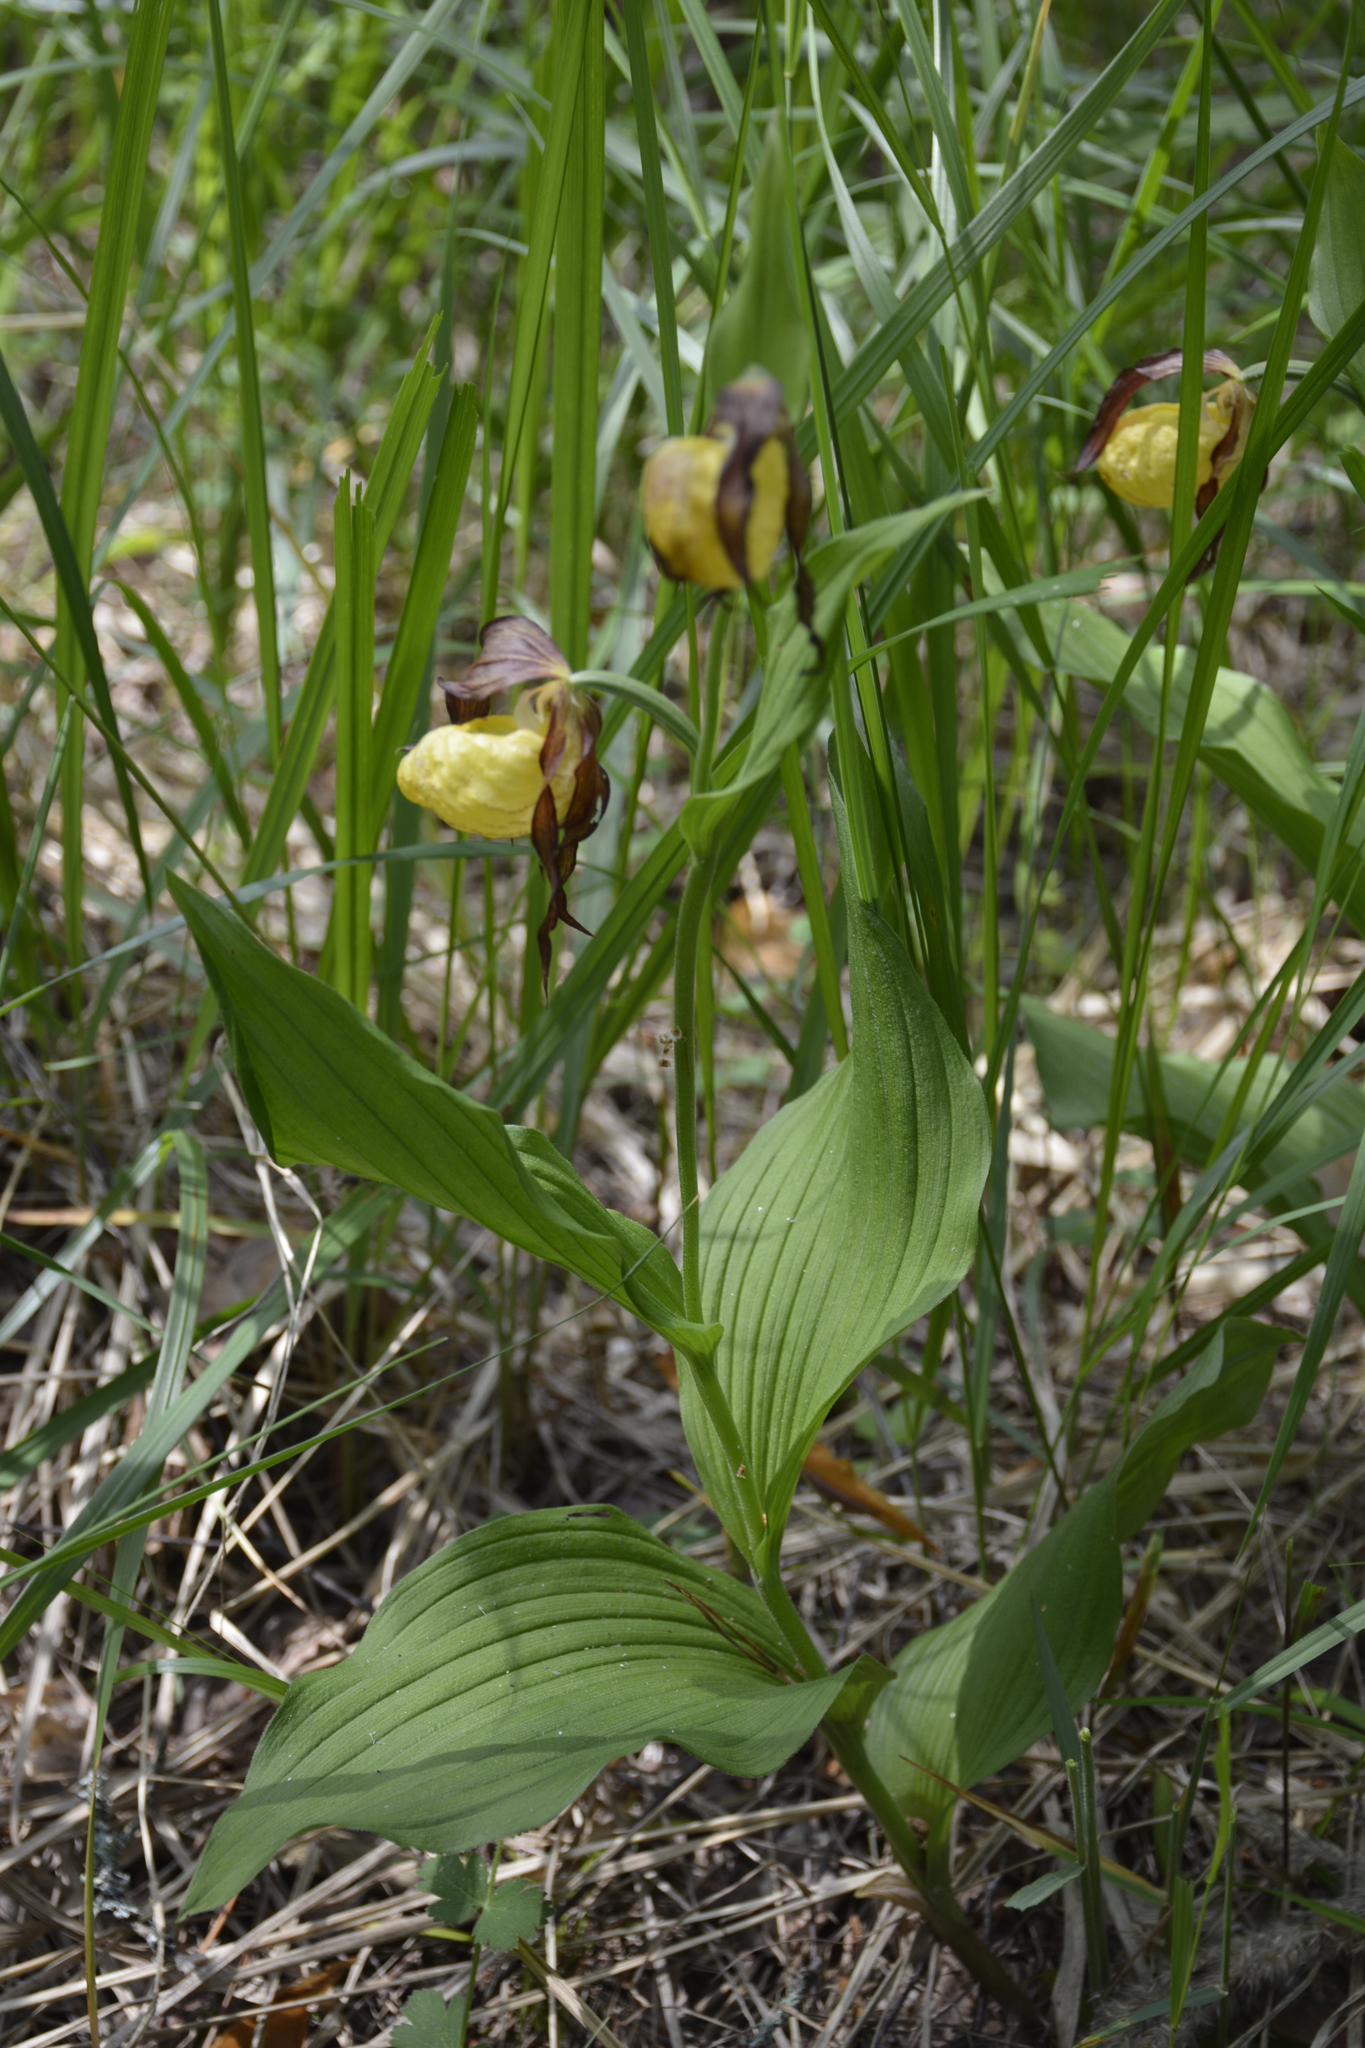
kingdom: Plantae
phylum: Tracheophyta
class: Liliopsida
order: Asparagales
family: Orchidaceae
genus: Cypripedium
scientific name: Cypripedium calceolus
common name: Lady's-slipper
